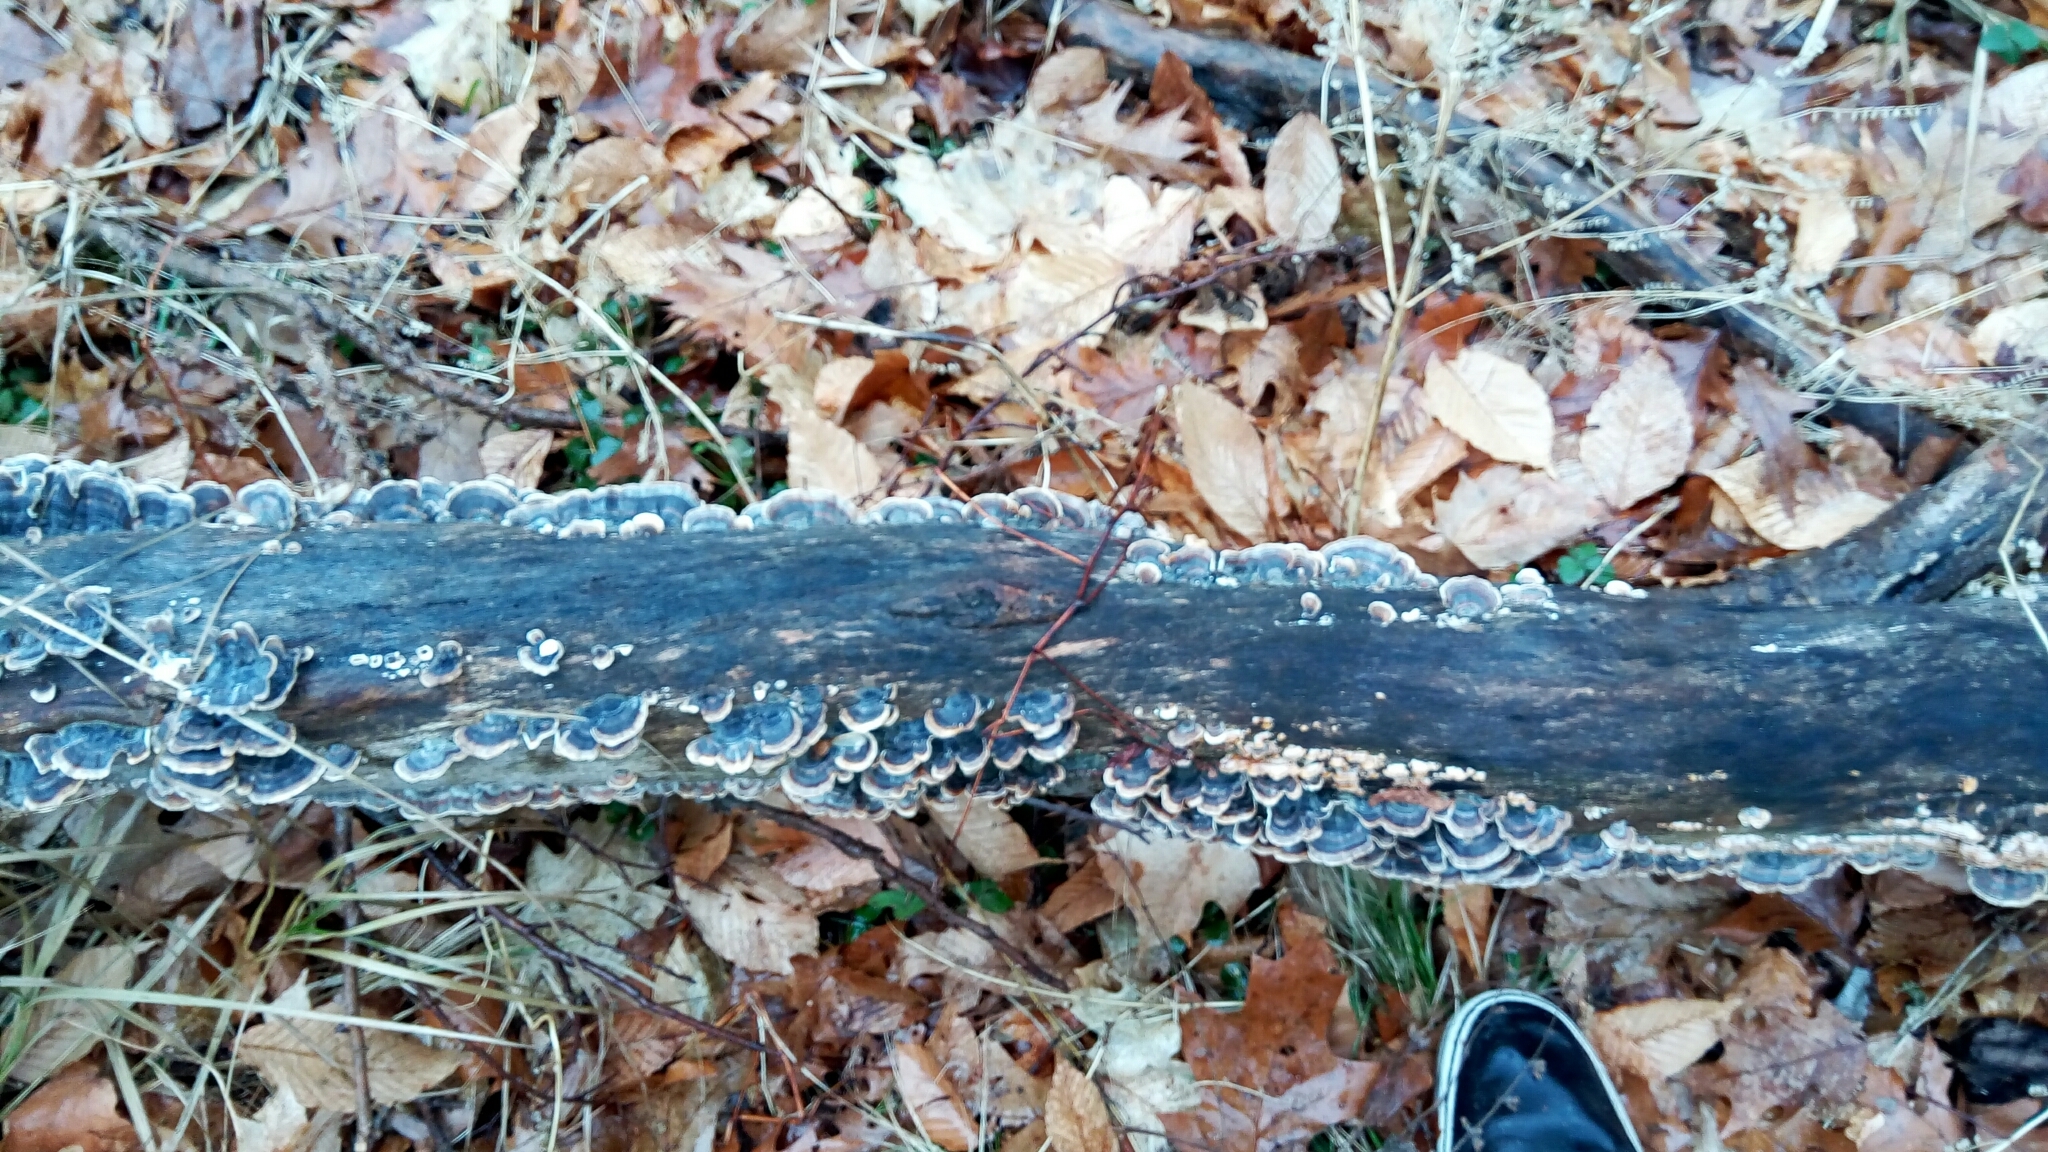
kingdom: Fungi
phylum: Basidiomycota
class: Agaricomycetes
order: Polyporales
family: Polyporaceae
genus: Trametes
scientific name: Trametes versicolor
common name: Turkeytail
